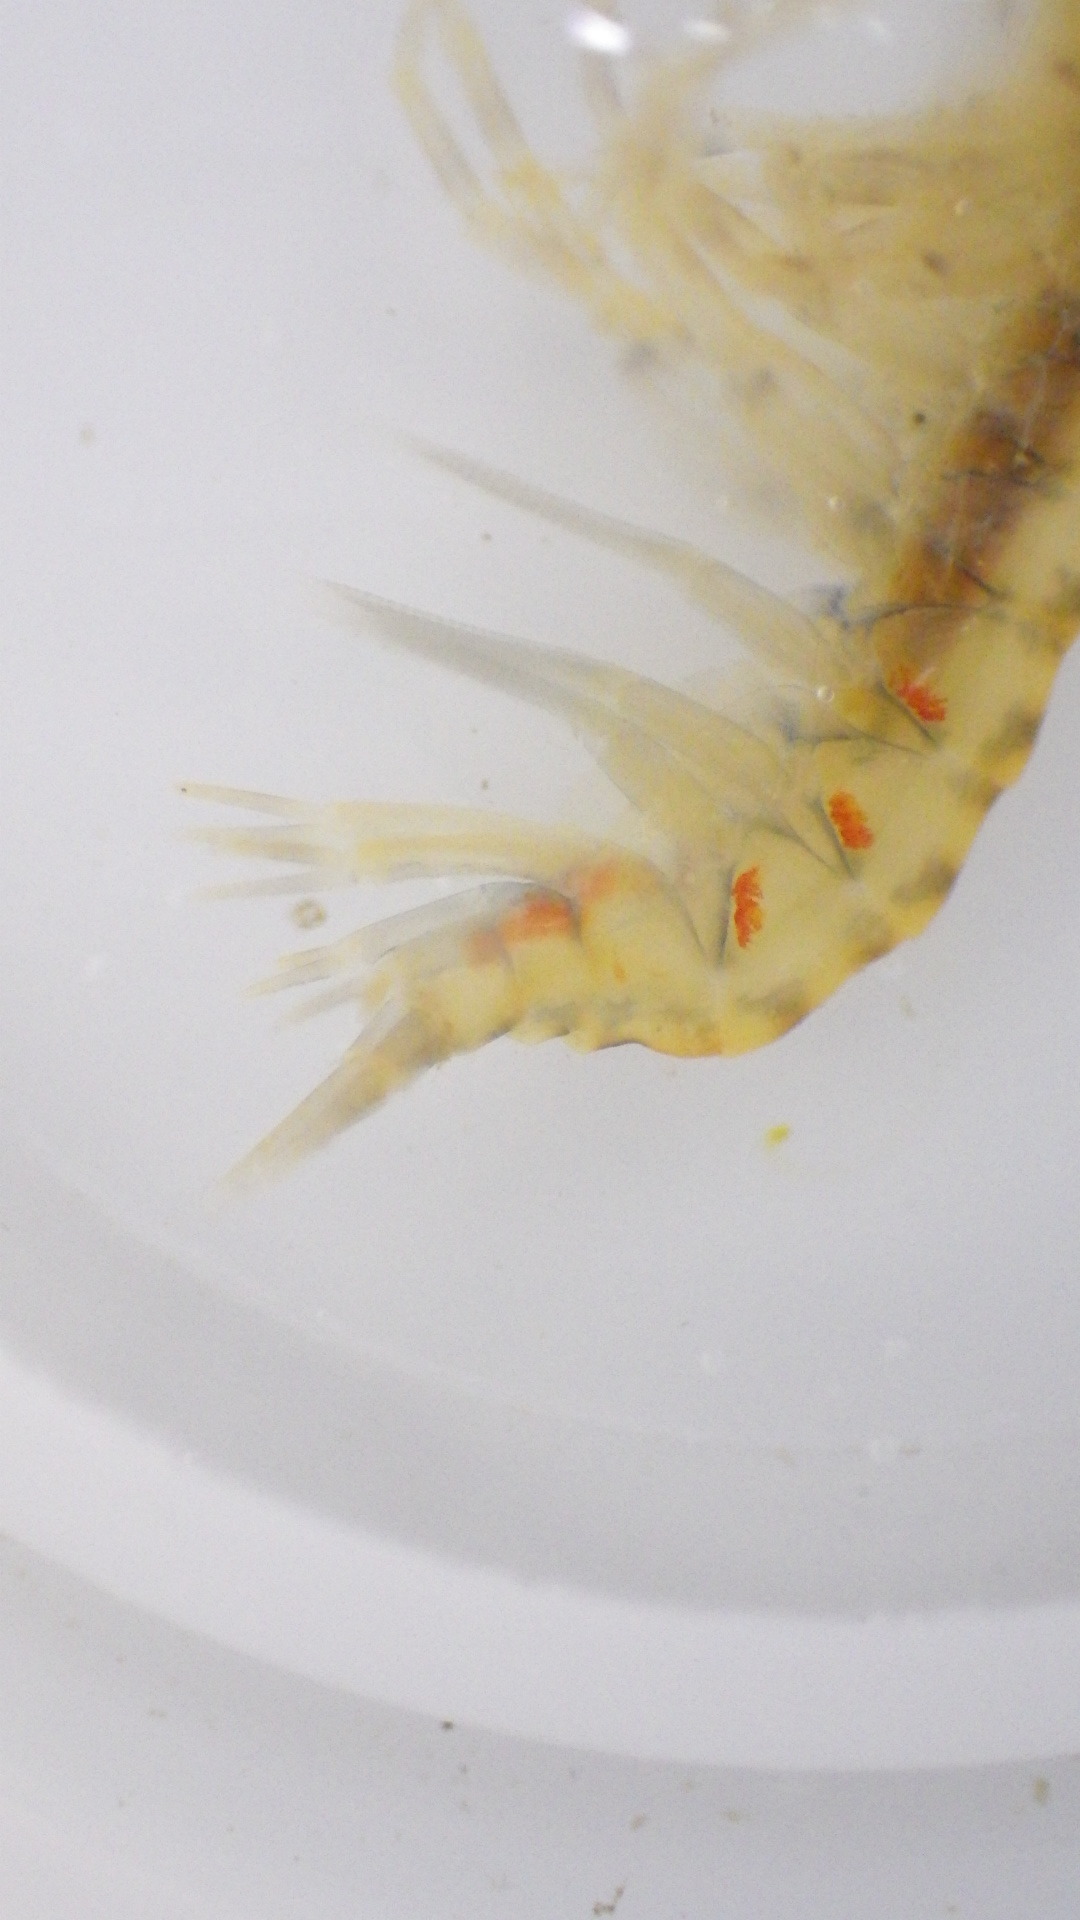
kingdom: Animalia
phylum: Arthropoda
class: Malacostraca
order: Amphipoda
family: Gammaridae
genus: Gammarus
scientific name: Gammarus fasciatus
